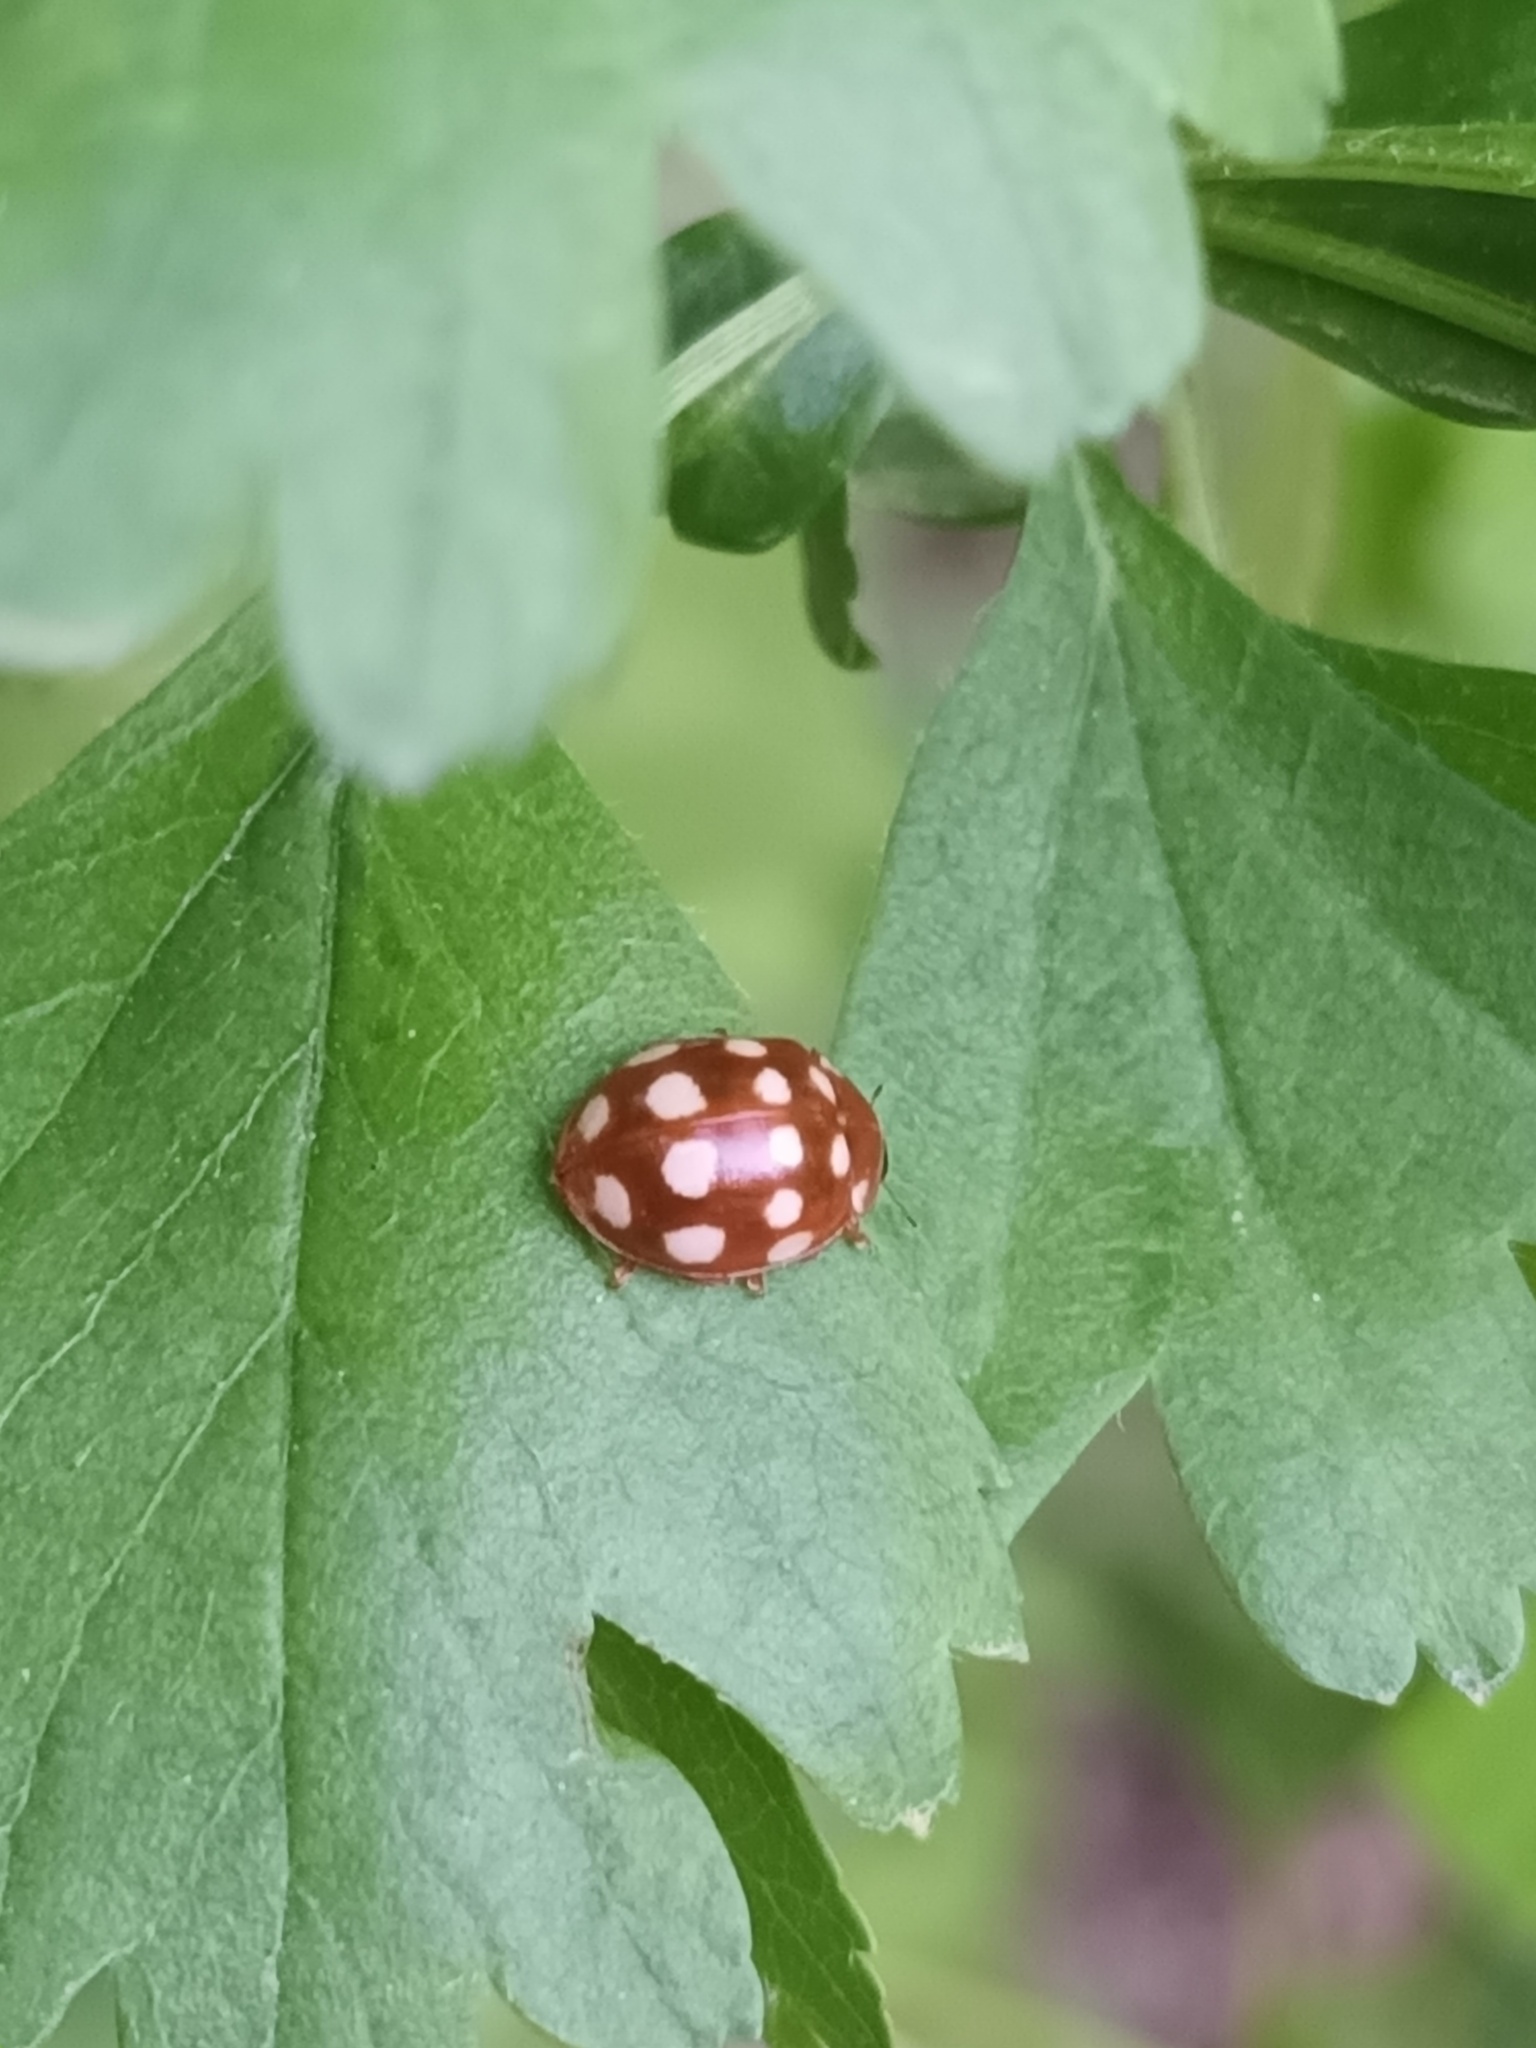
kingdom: Animalia
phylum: Arthropoda
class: Insecta
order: Coleoptera
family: Coccinellidae
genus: Calvia
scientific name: Calvia quatuordecimguttata
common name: Cream-spot ladybird
